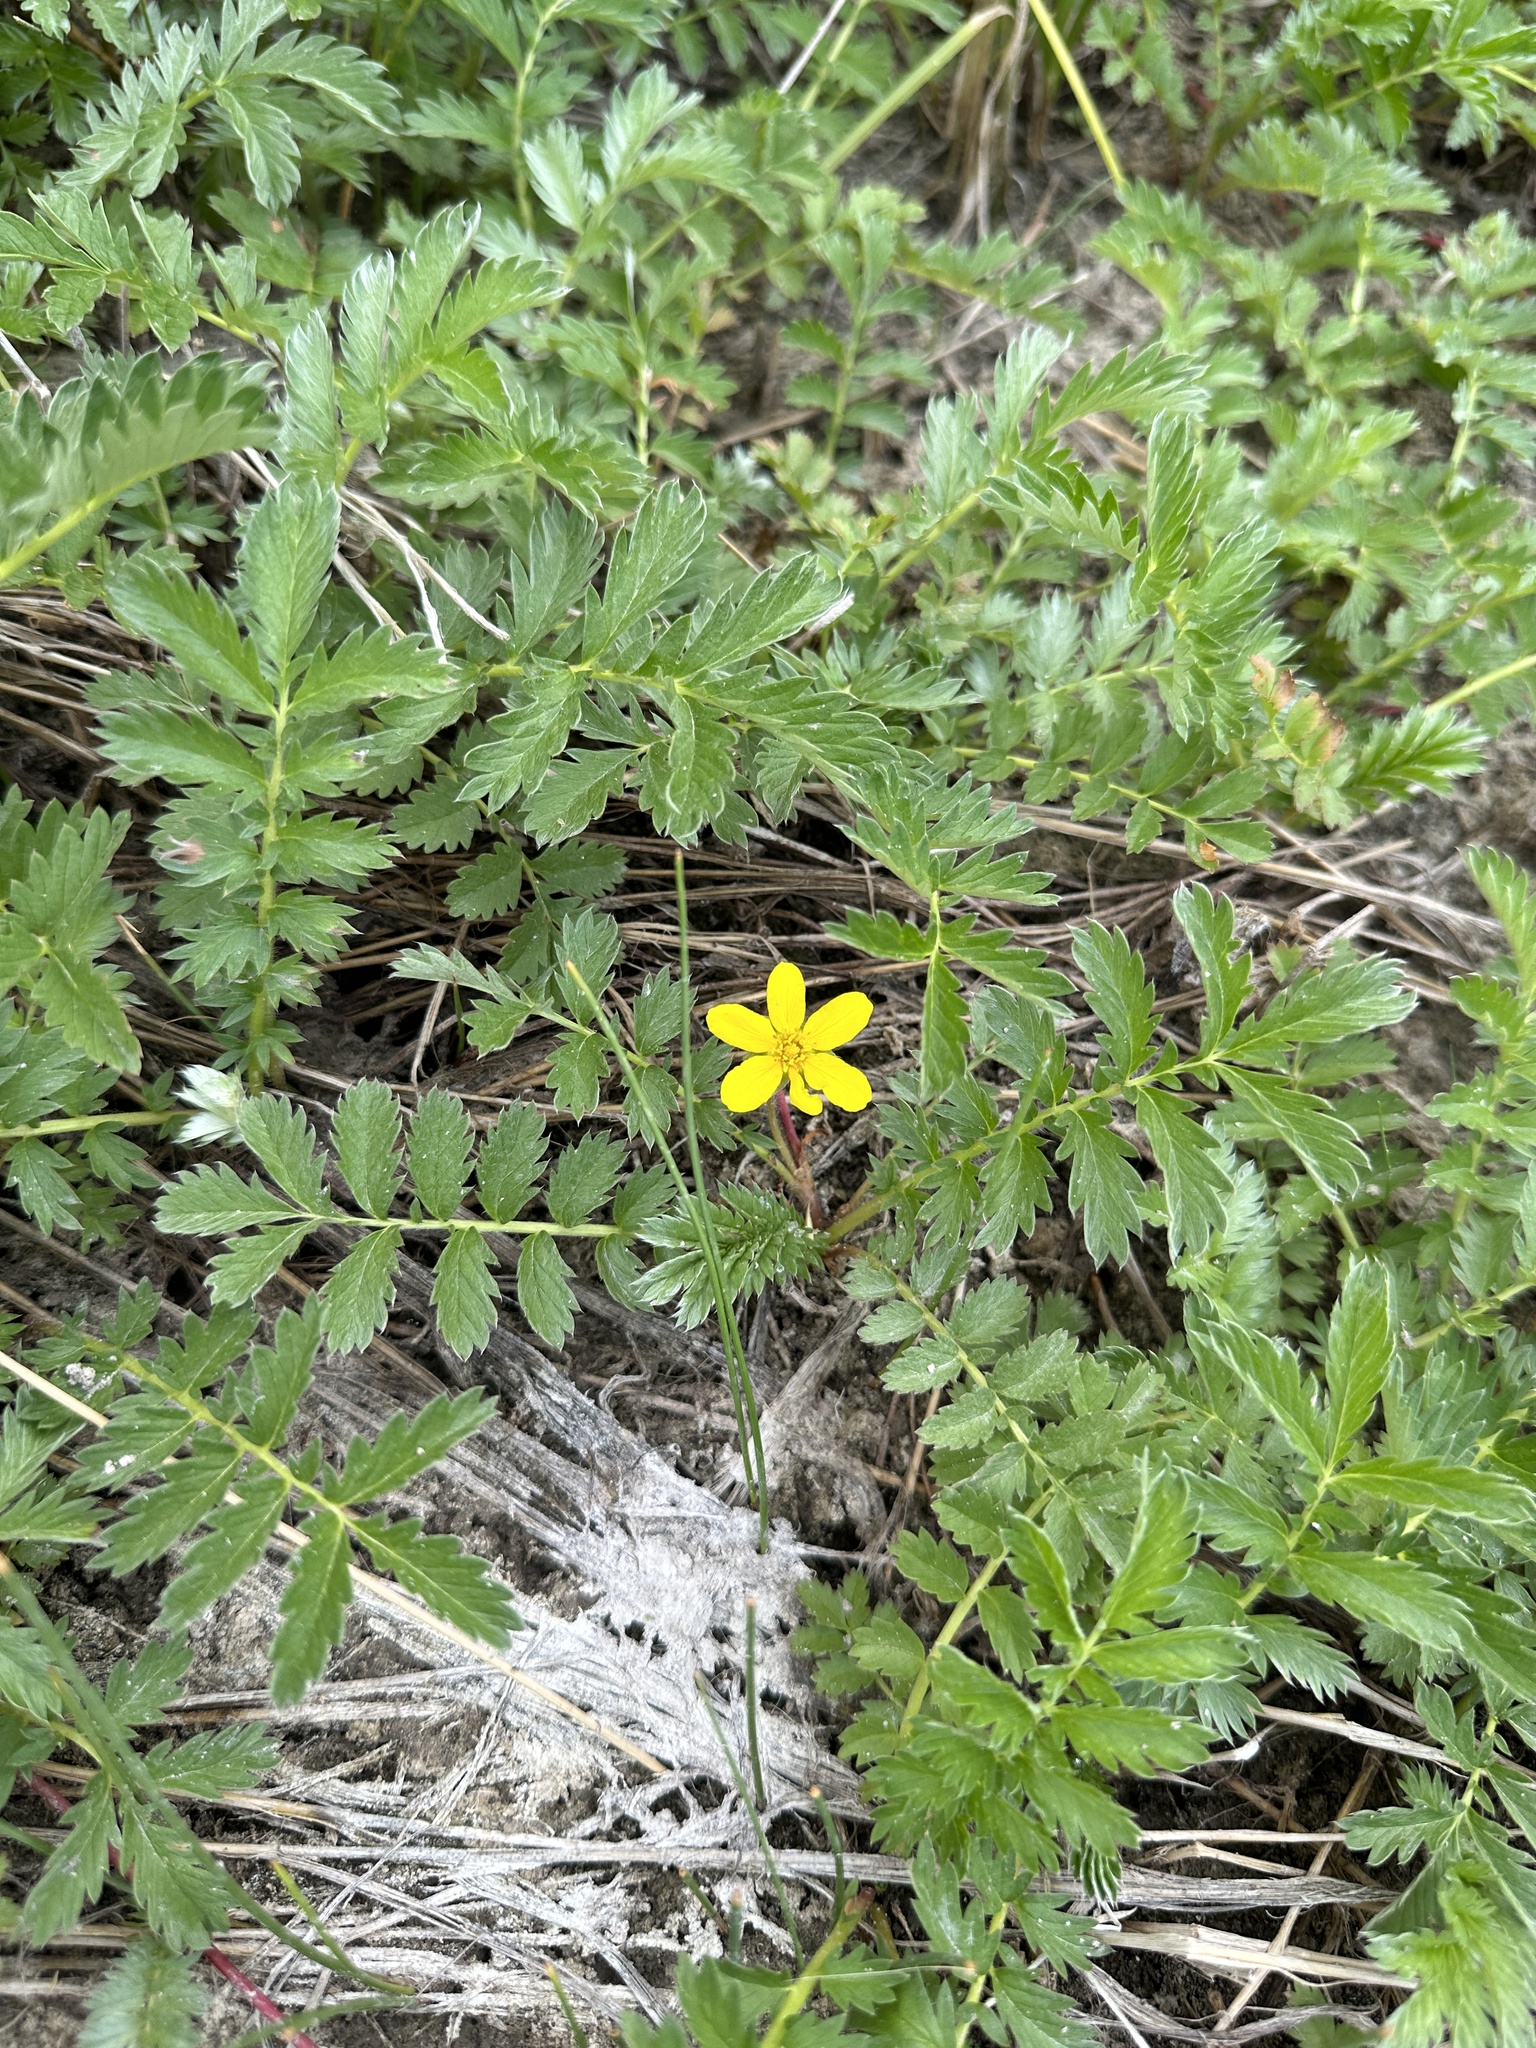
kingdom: Plantae
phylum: Tracheophyta
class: Magnoliopsida
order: Rosales
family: Rosaceae
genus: Argentina
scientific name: Argentina anserina
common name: Common silverweed
